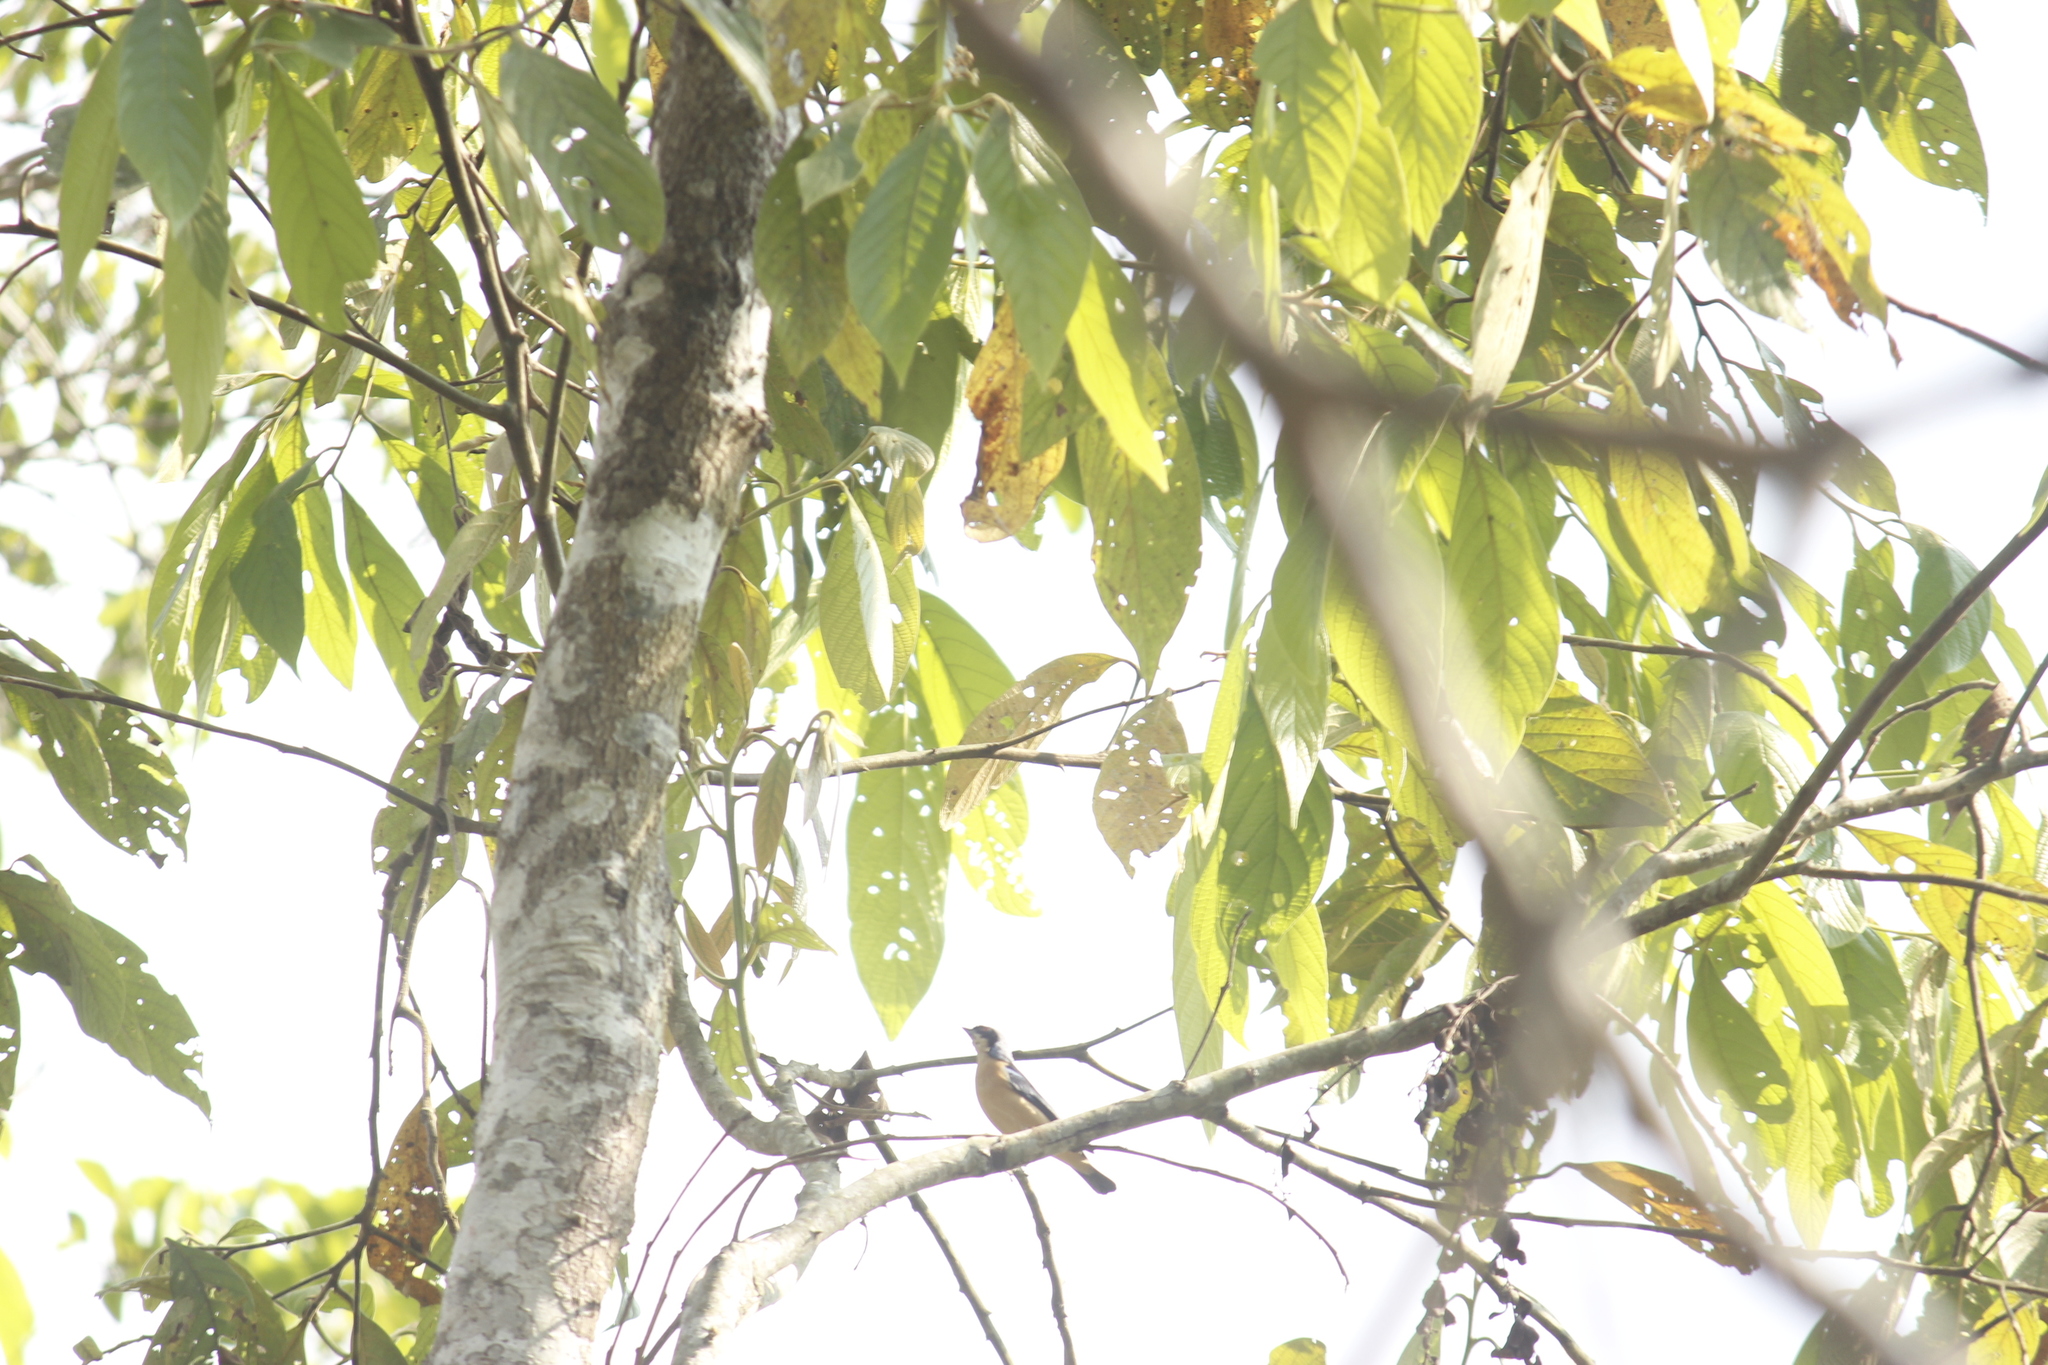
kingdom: Animalia
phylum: Chordata
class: Aves
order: Passeriformes
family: Thraupidae
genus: Pipraeidea
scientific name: Pipraeidea melanonota
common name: Fawn-breasted tanager
